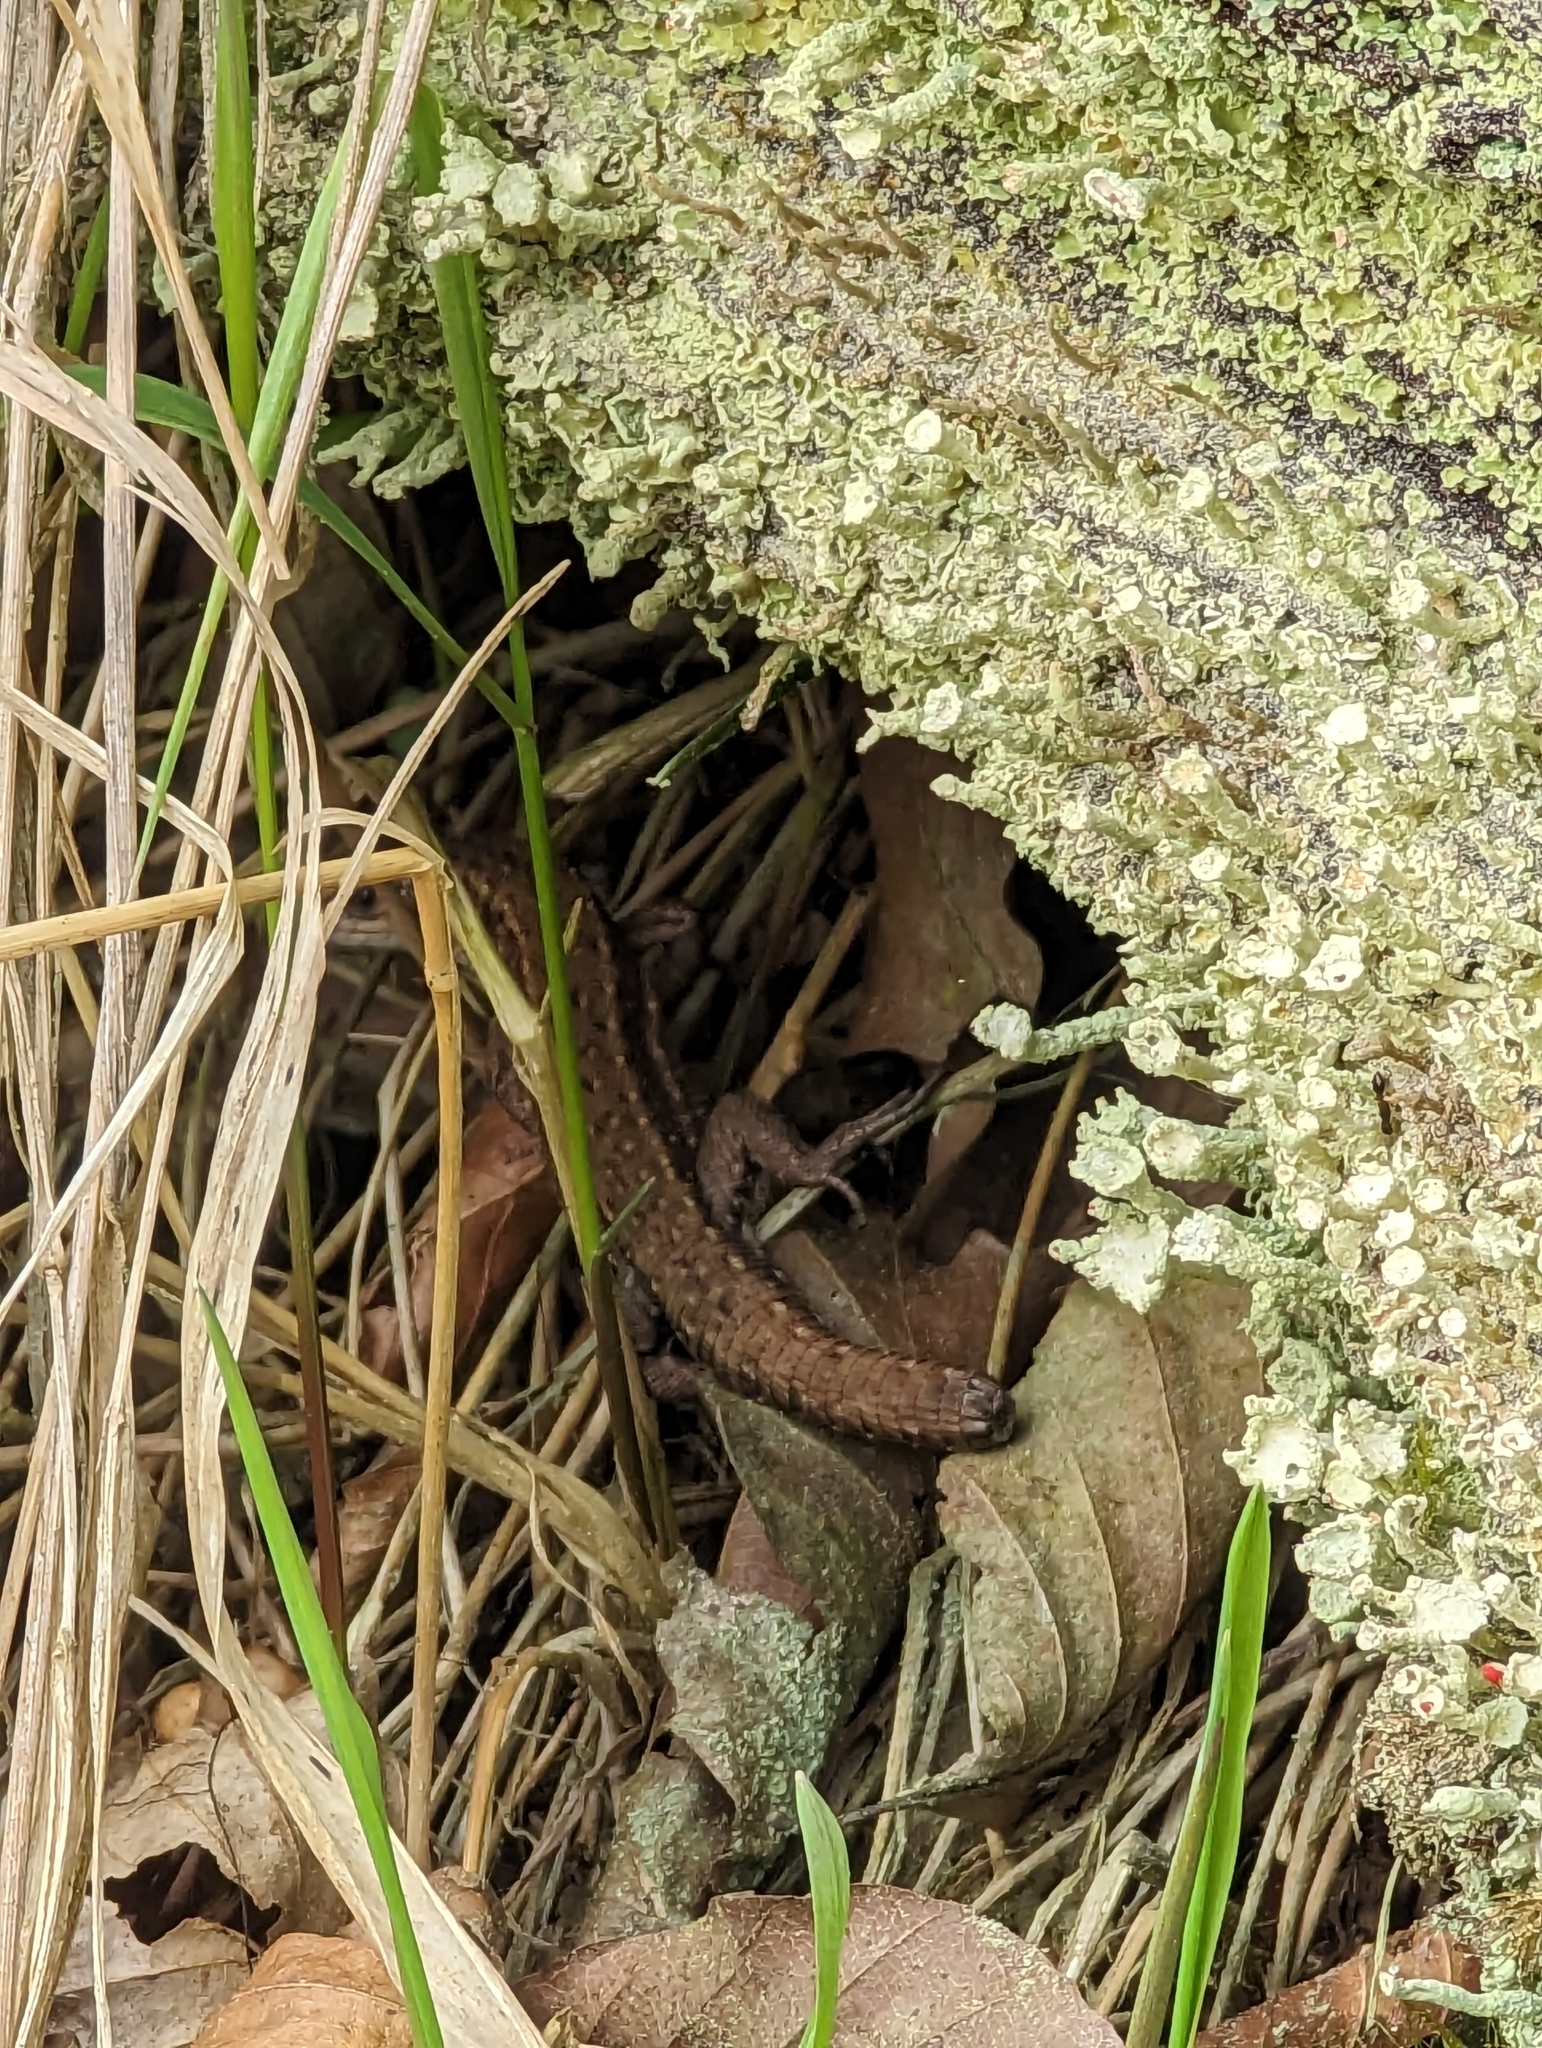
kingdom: Animalia
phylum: Chordata
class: Squamata
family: Lacertidae
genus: Zootoca
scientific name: Zootoca vivipara
